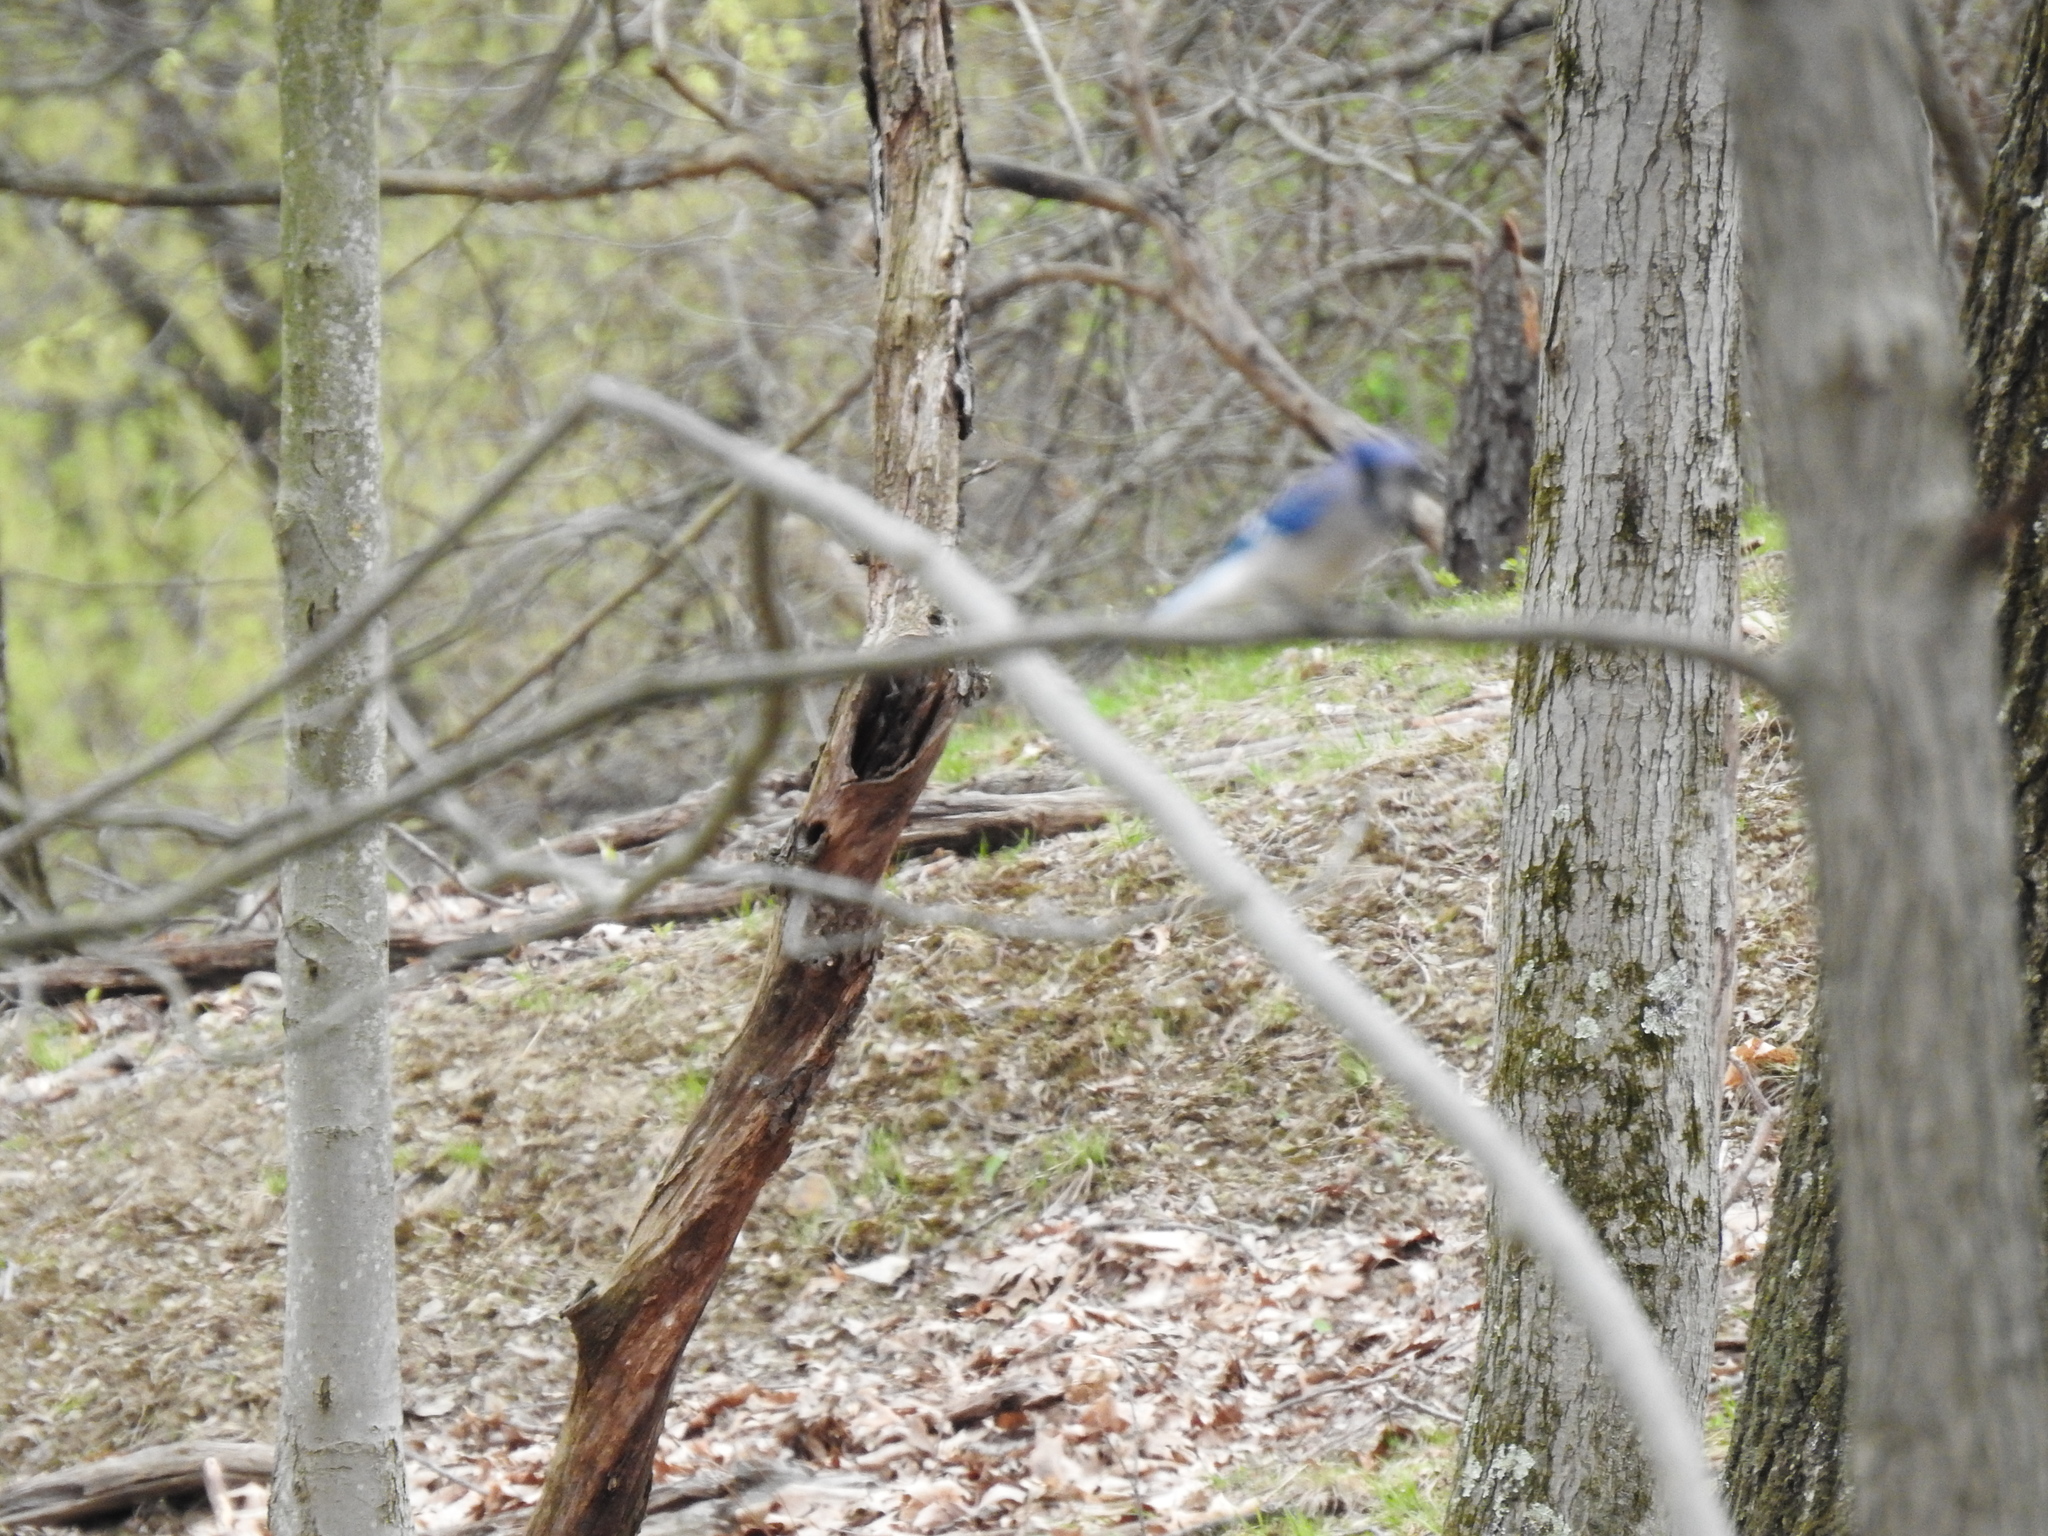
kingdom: Animalia
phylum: Chordata
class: Aves
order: Passeriformes
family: Corvidae
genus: Cyanocitta
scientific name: Cyanocitta cristata
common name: Blue jay
